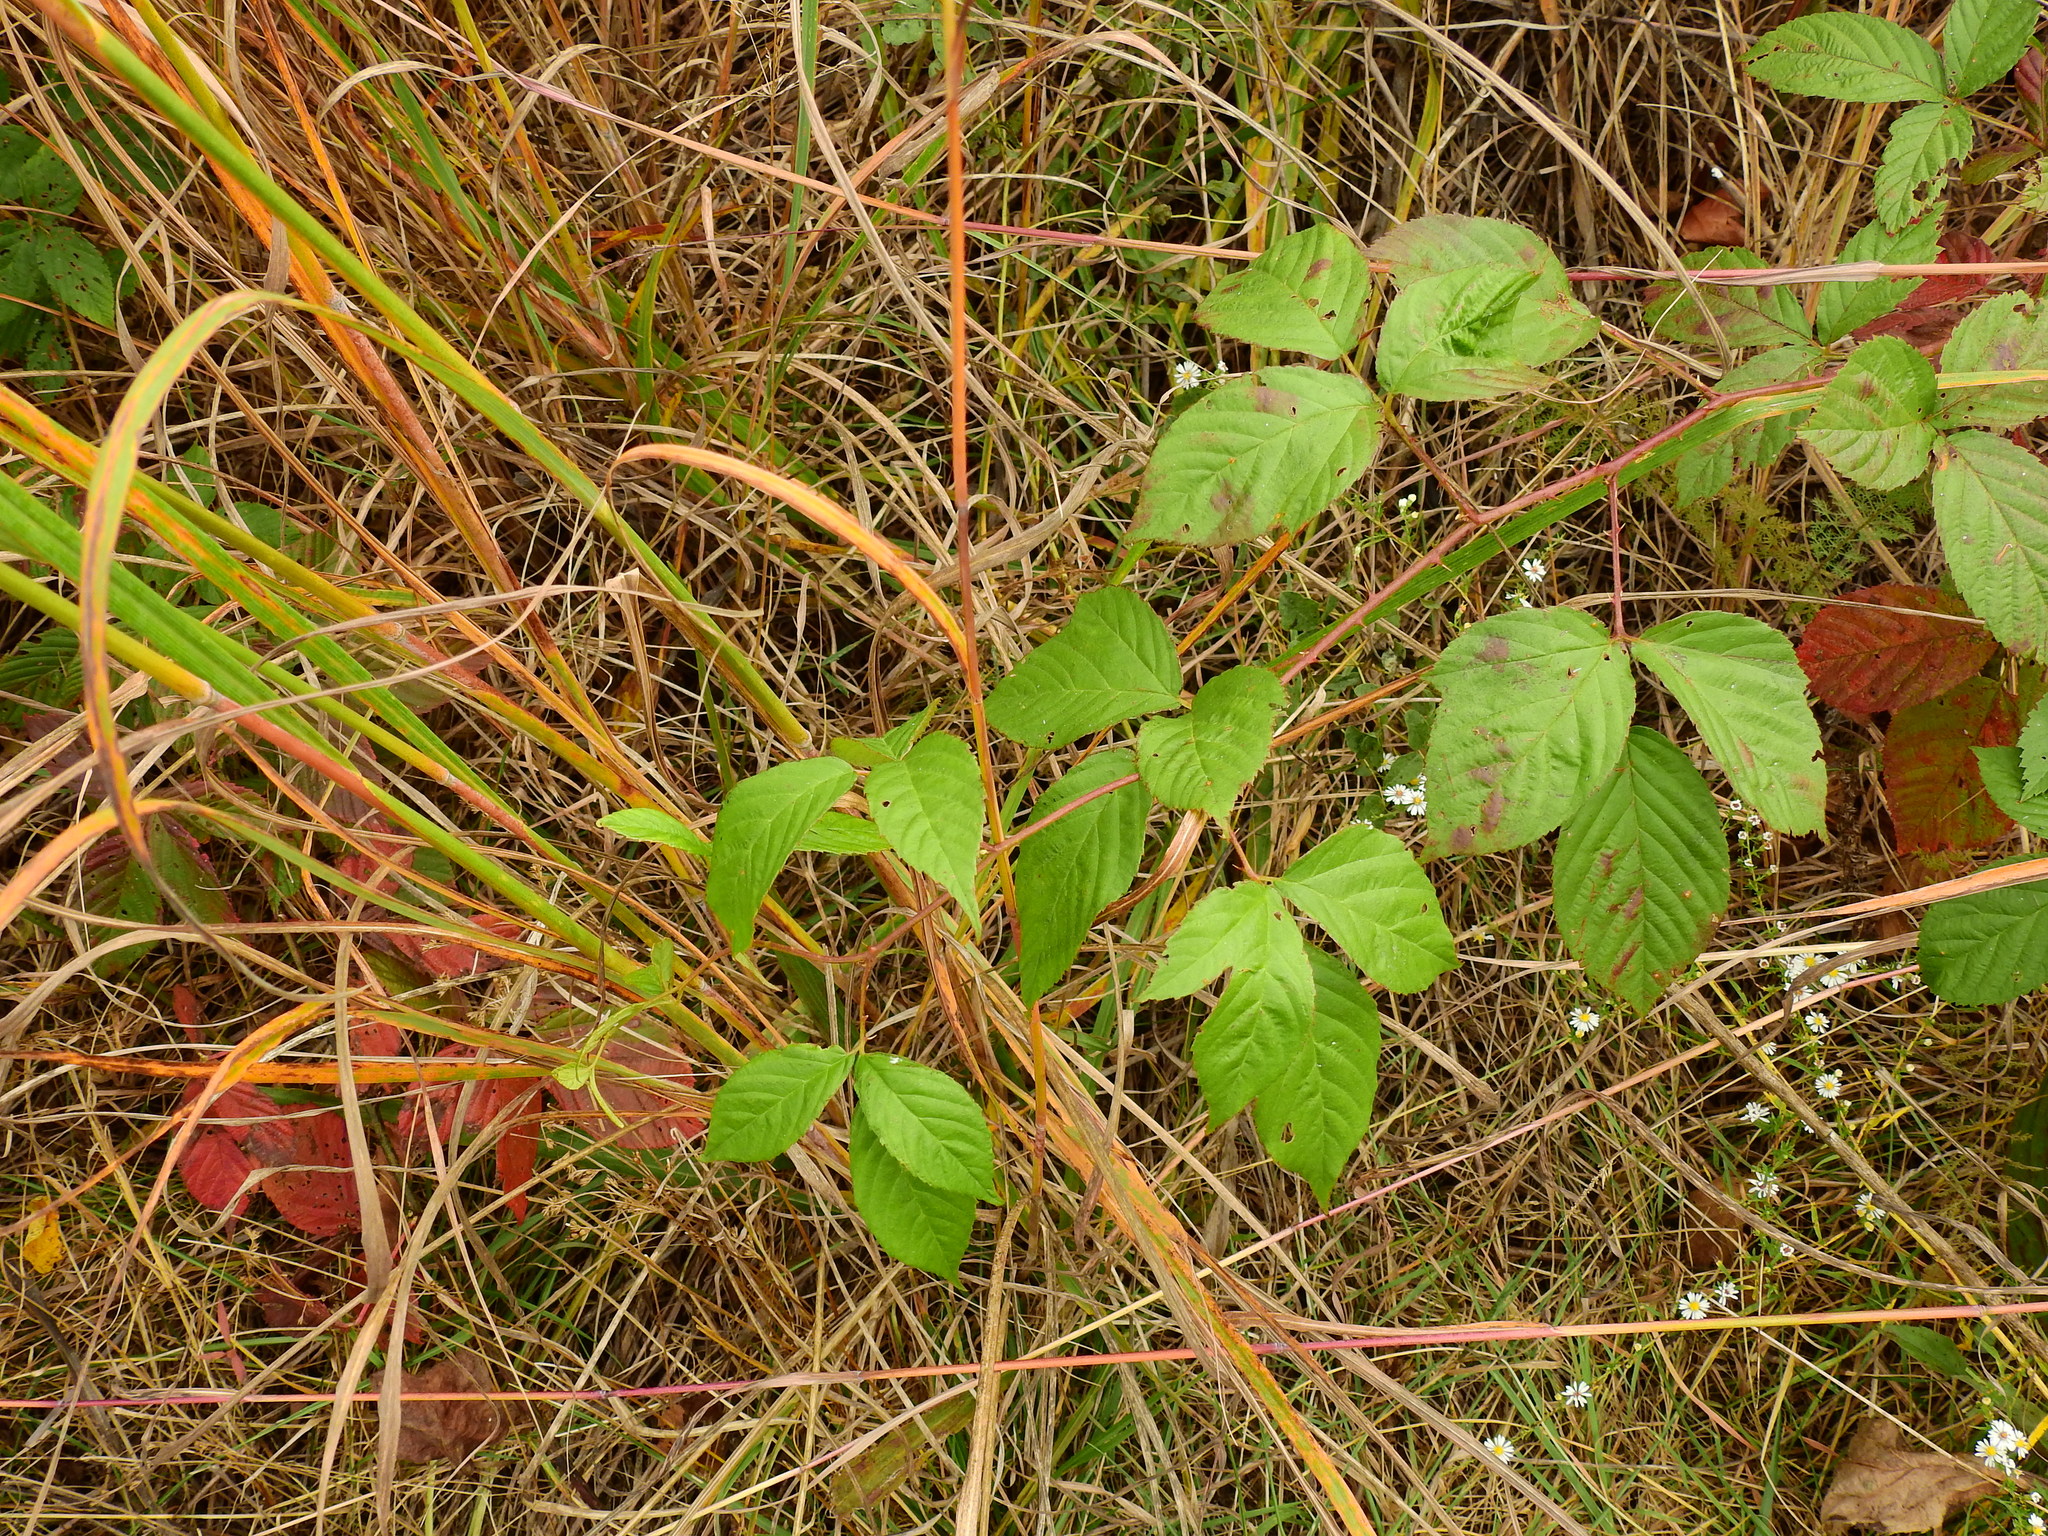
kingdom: Plantae
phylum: Tracheophyta
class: Magnoliopsida
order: Rosales
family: Rosaceae
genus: Rubus
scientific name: Rubus allegheniensis
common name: Allegheny blackberry
